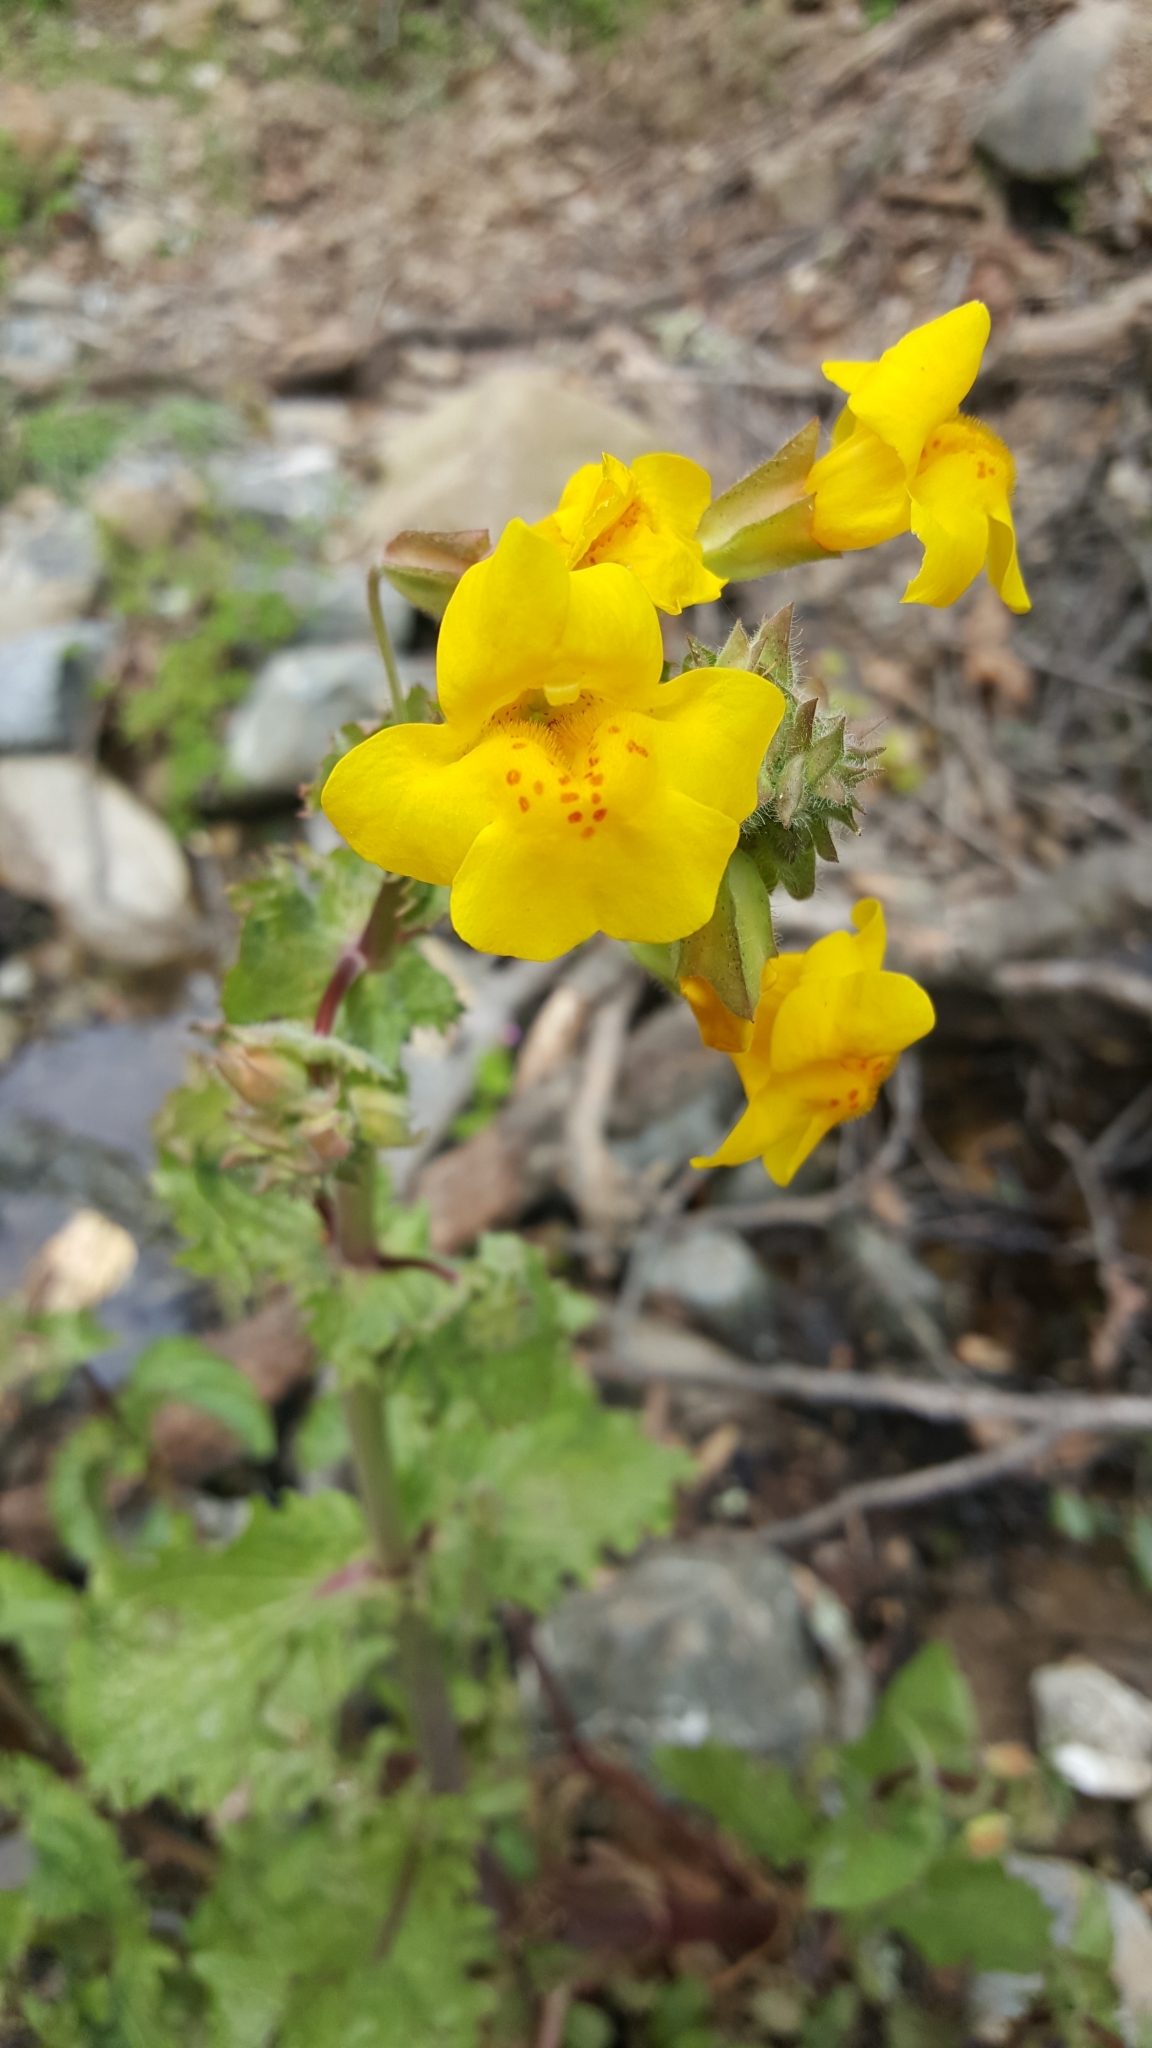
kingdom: Plantae
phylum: Tracheophyta
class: Magnoliopsida
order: Lamiales
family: Phrymaceae
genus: Erythranthe
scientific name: Erythranthe guttata
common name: Monkeyflower
